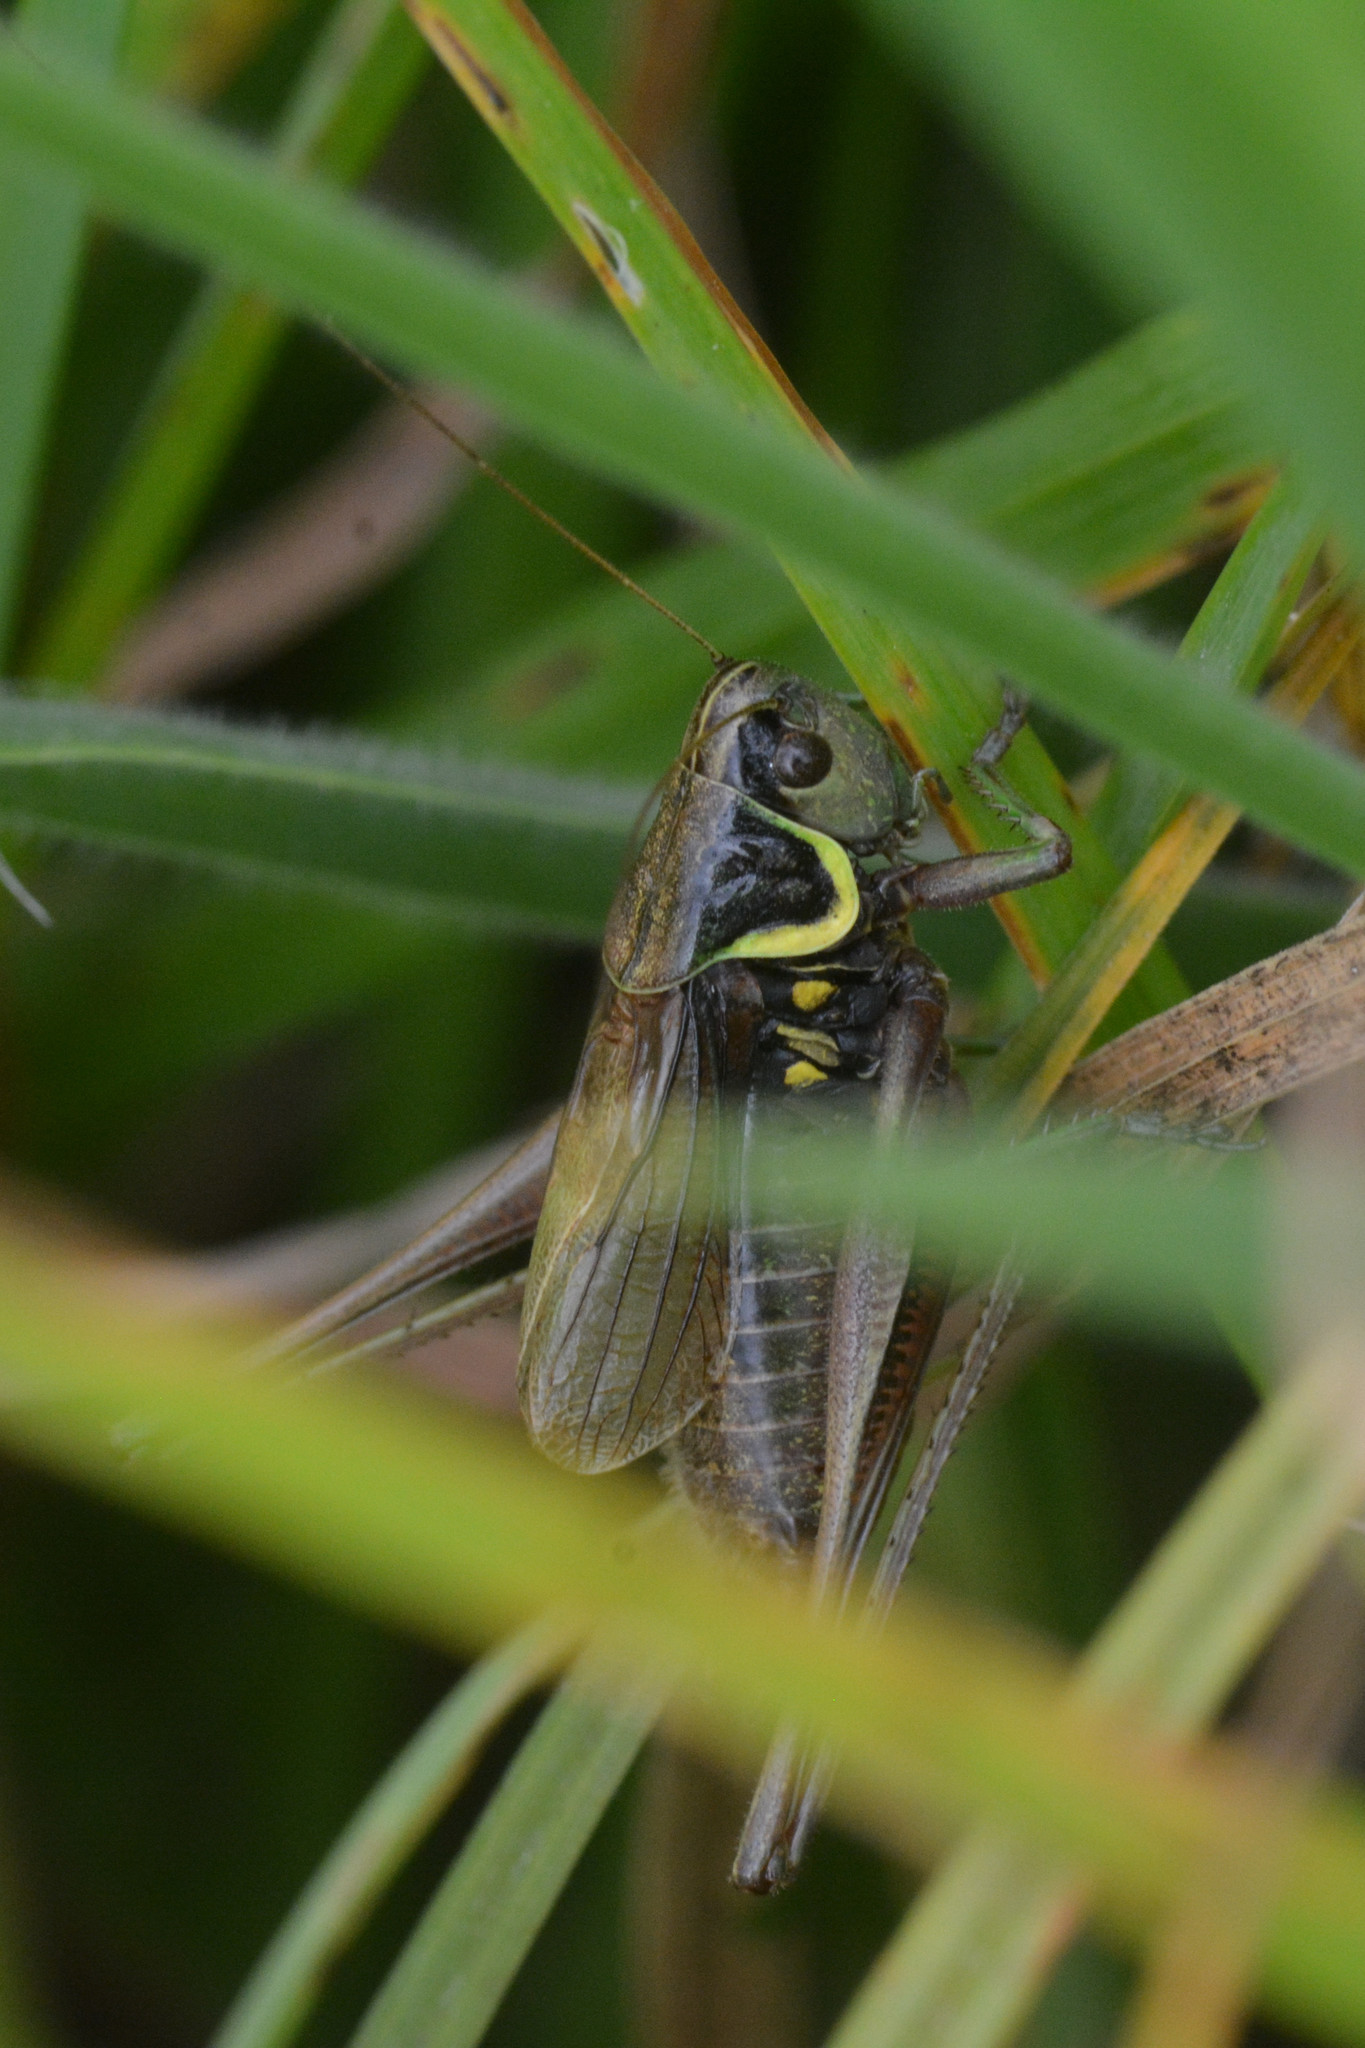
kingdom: Animalia
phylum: Arthropoda
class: Insecta
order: Orthoptera
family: Tettigoniidae
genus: Roeseliana
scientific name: Roeseliana roeselii
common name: Roesel's bush cricket
